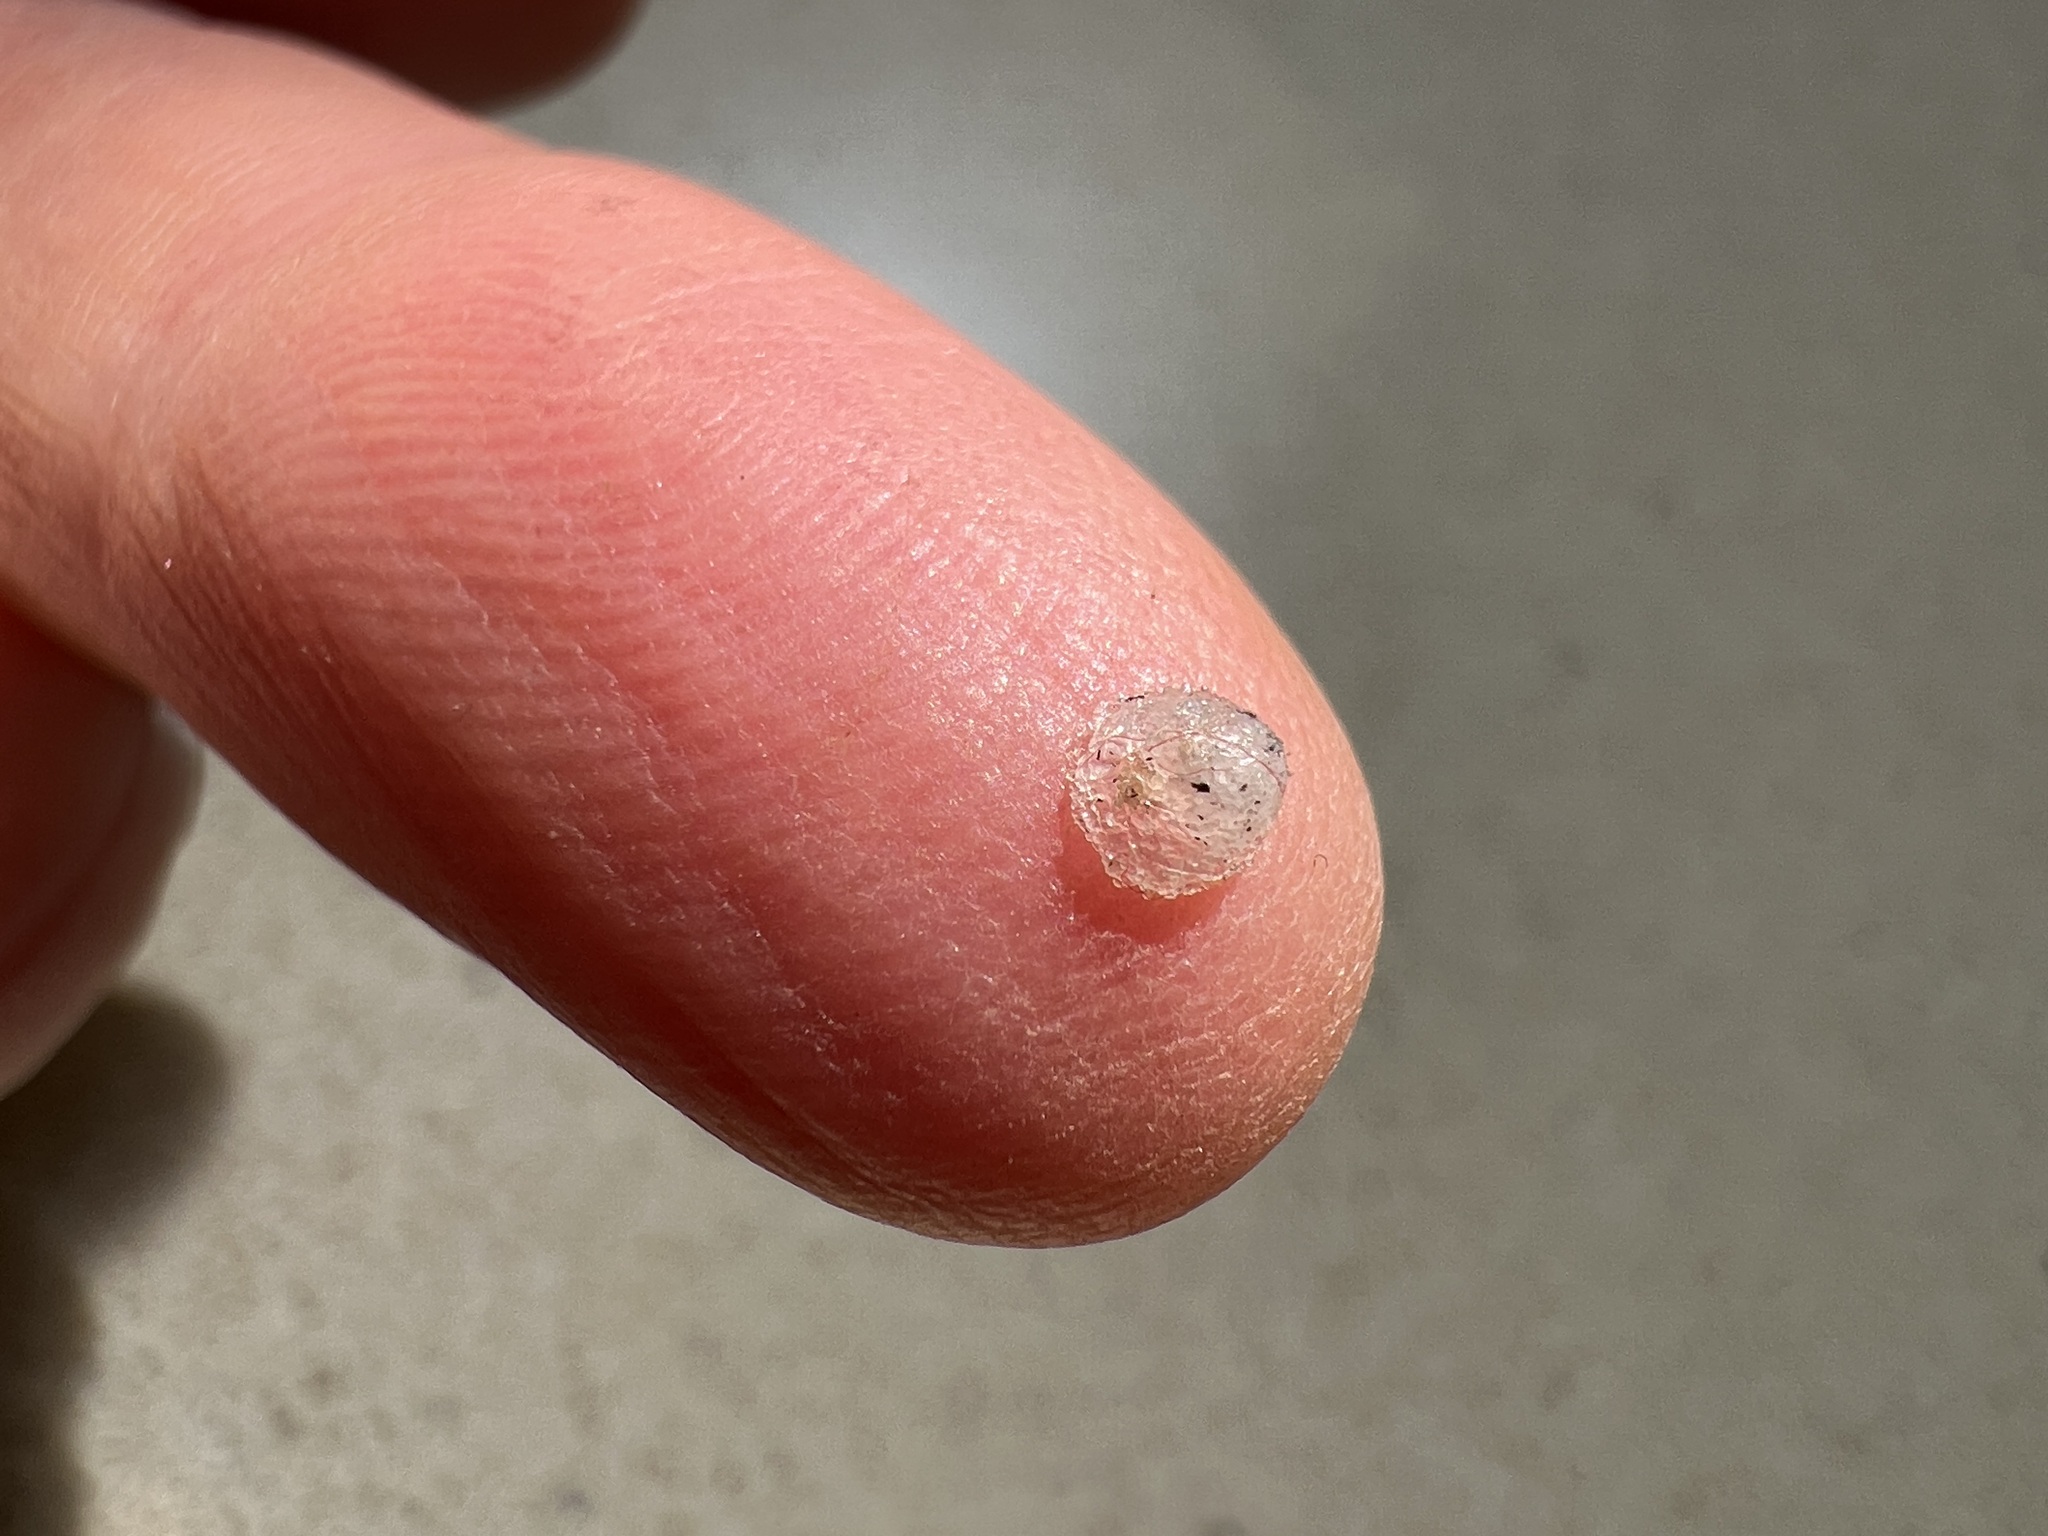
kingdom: Animalia
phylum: Arthropoda
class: Insecta
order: Hemiptera
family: Aphalaridae
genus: Glycaspis
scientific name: Glycaspis brimblecombei
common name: Red gum lerp psyllid
